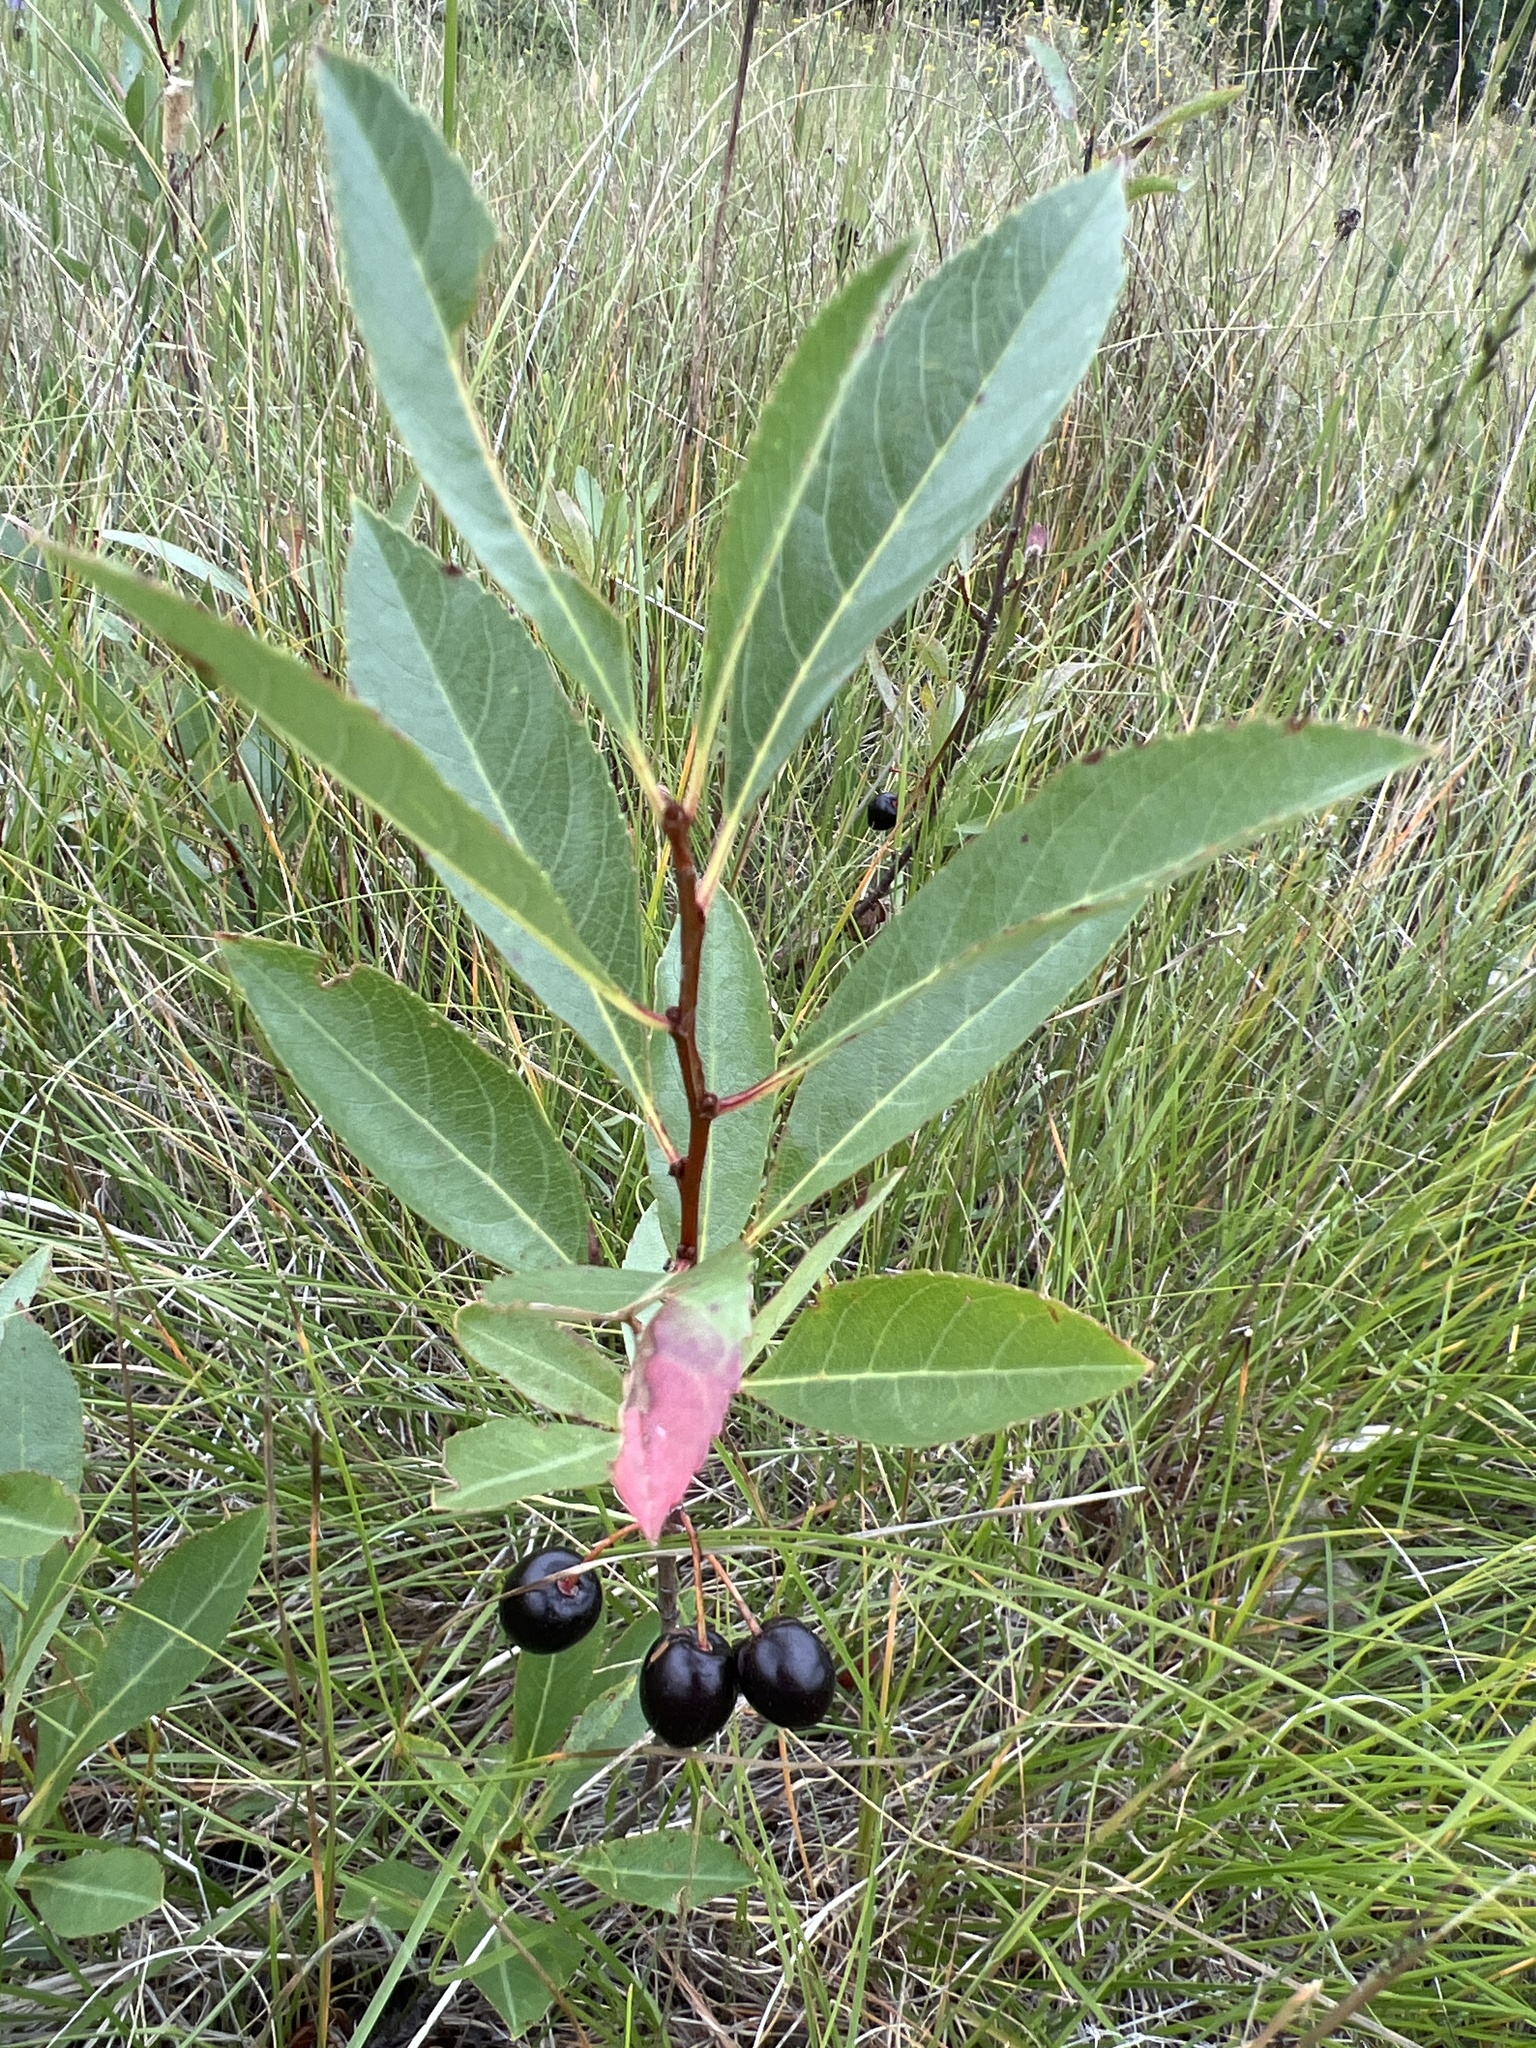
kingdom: Plantae
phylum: Tracheophyta
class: Magnoliopsida
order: Rosales
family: Rosaceae
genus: Prunus
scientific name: Prunus pumila
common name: Dwarf cherry
